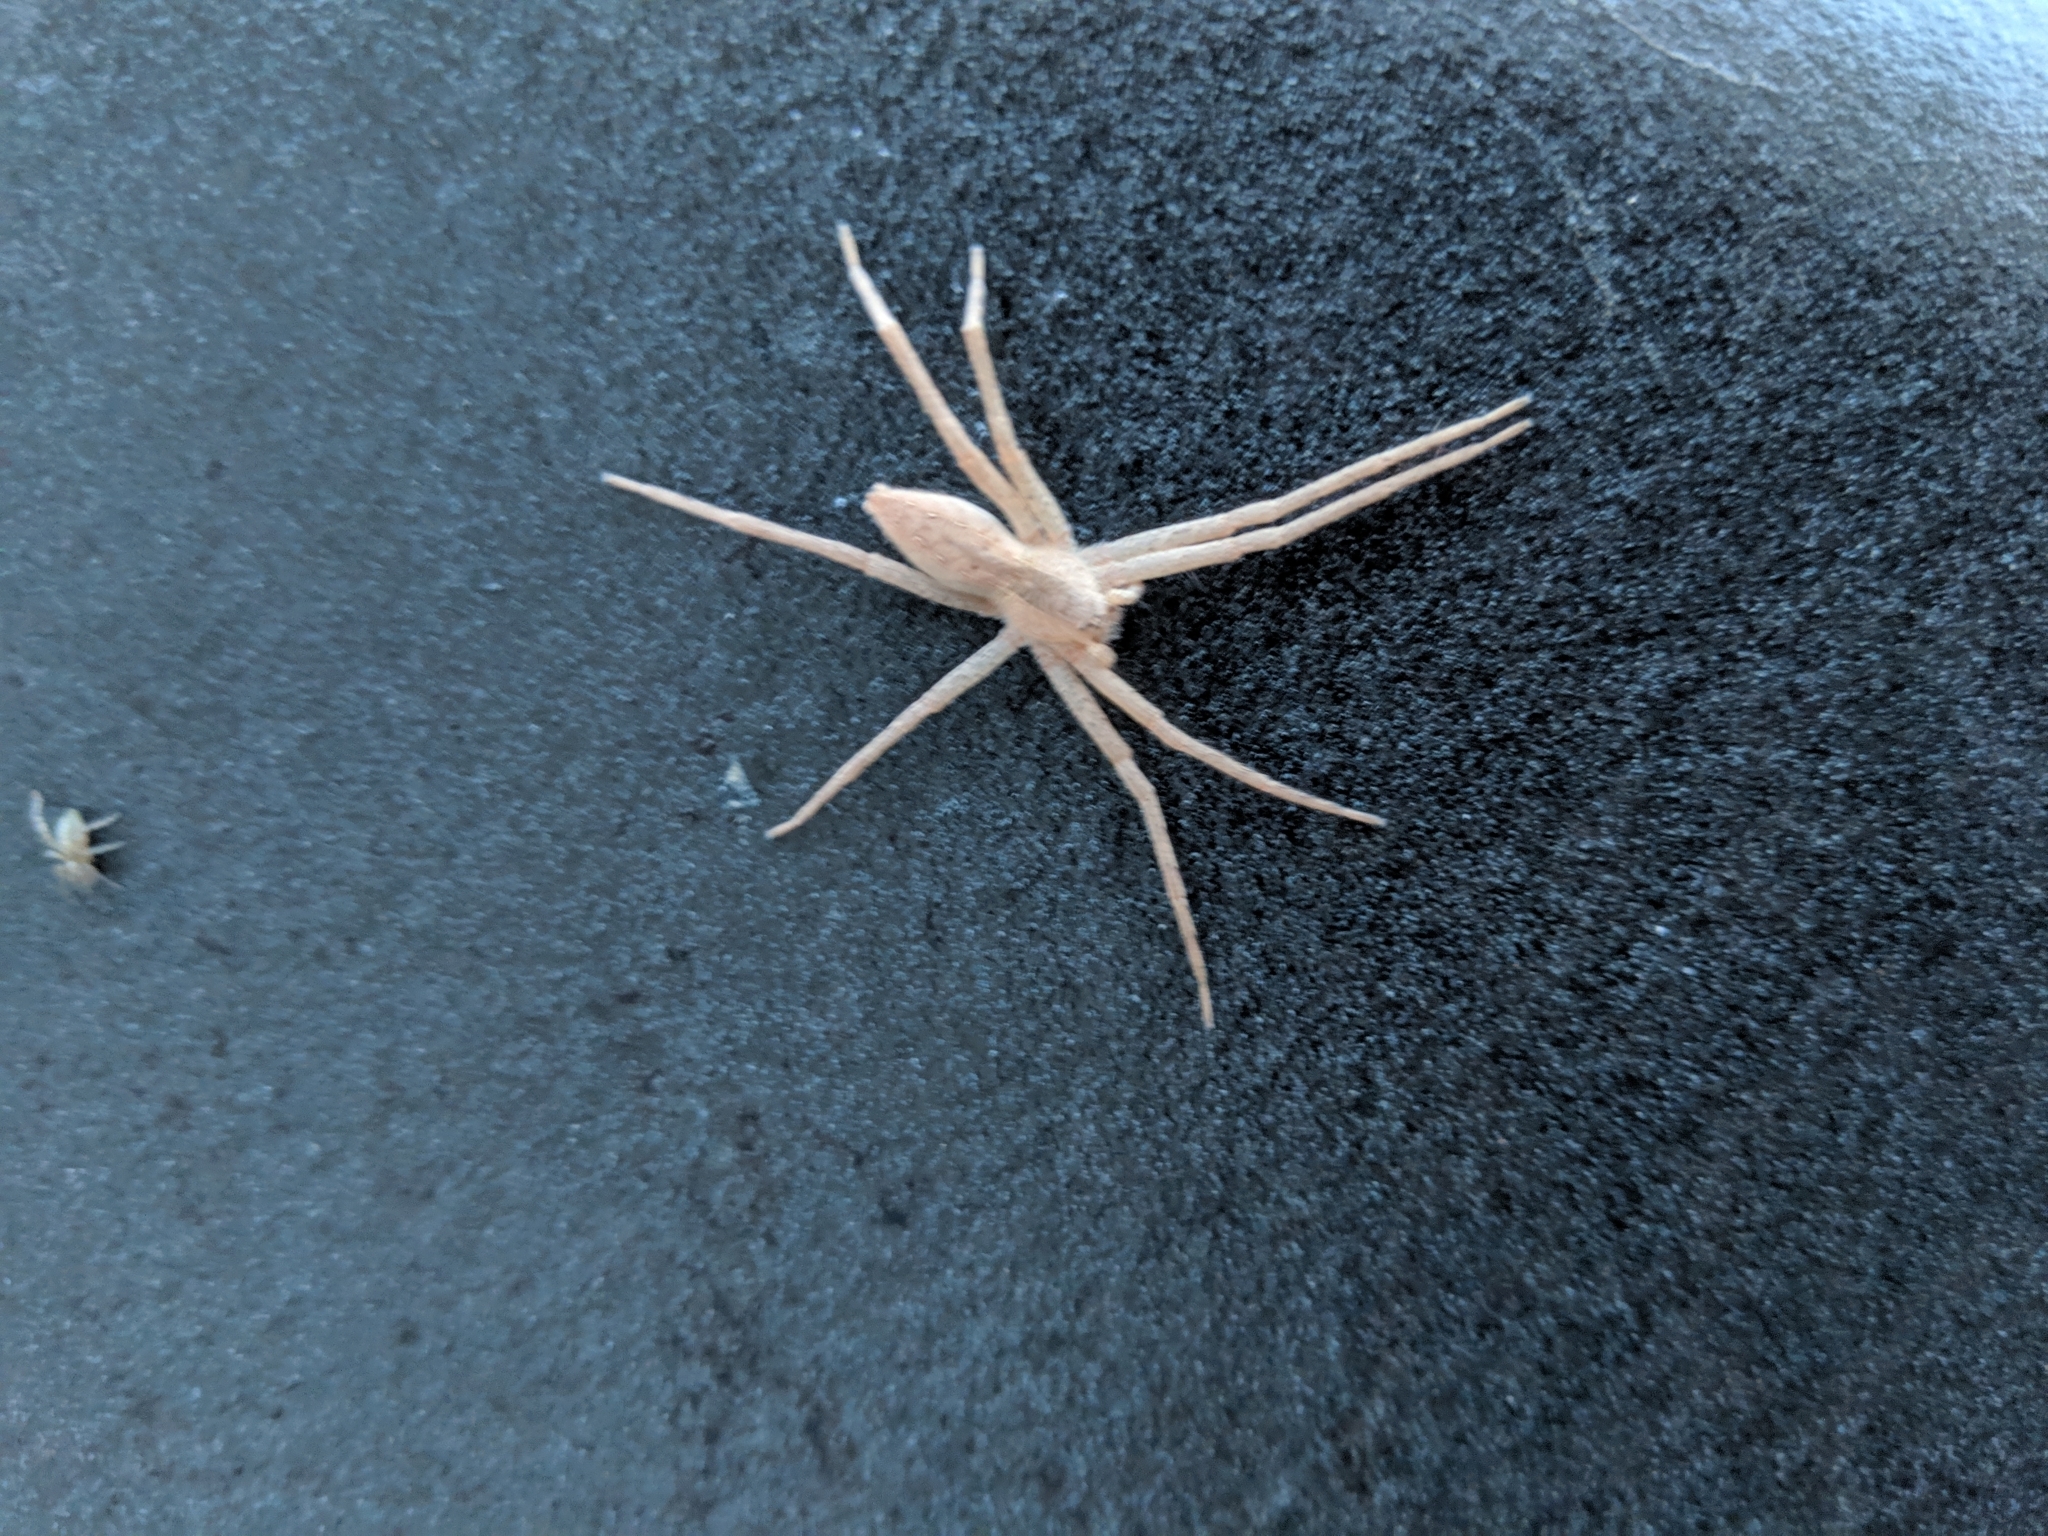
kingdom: Animalia
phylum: Arthropoda
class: Arachnida
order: Araneae
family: Pisauridae
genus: Pisaurina
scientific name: Pisaurina mira
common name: American nursery web spider
